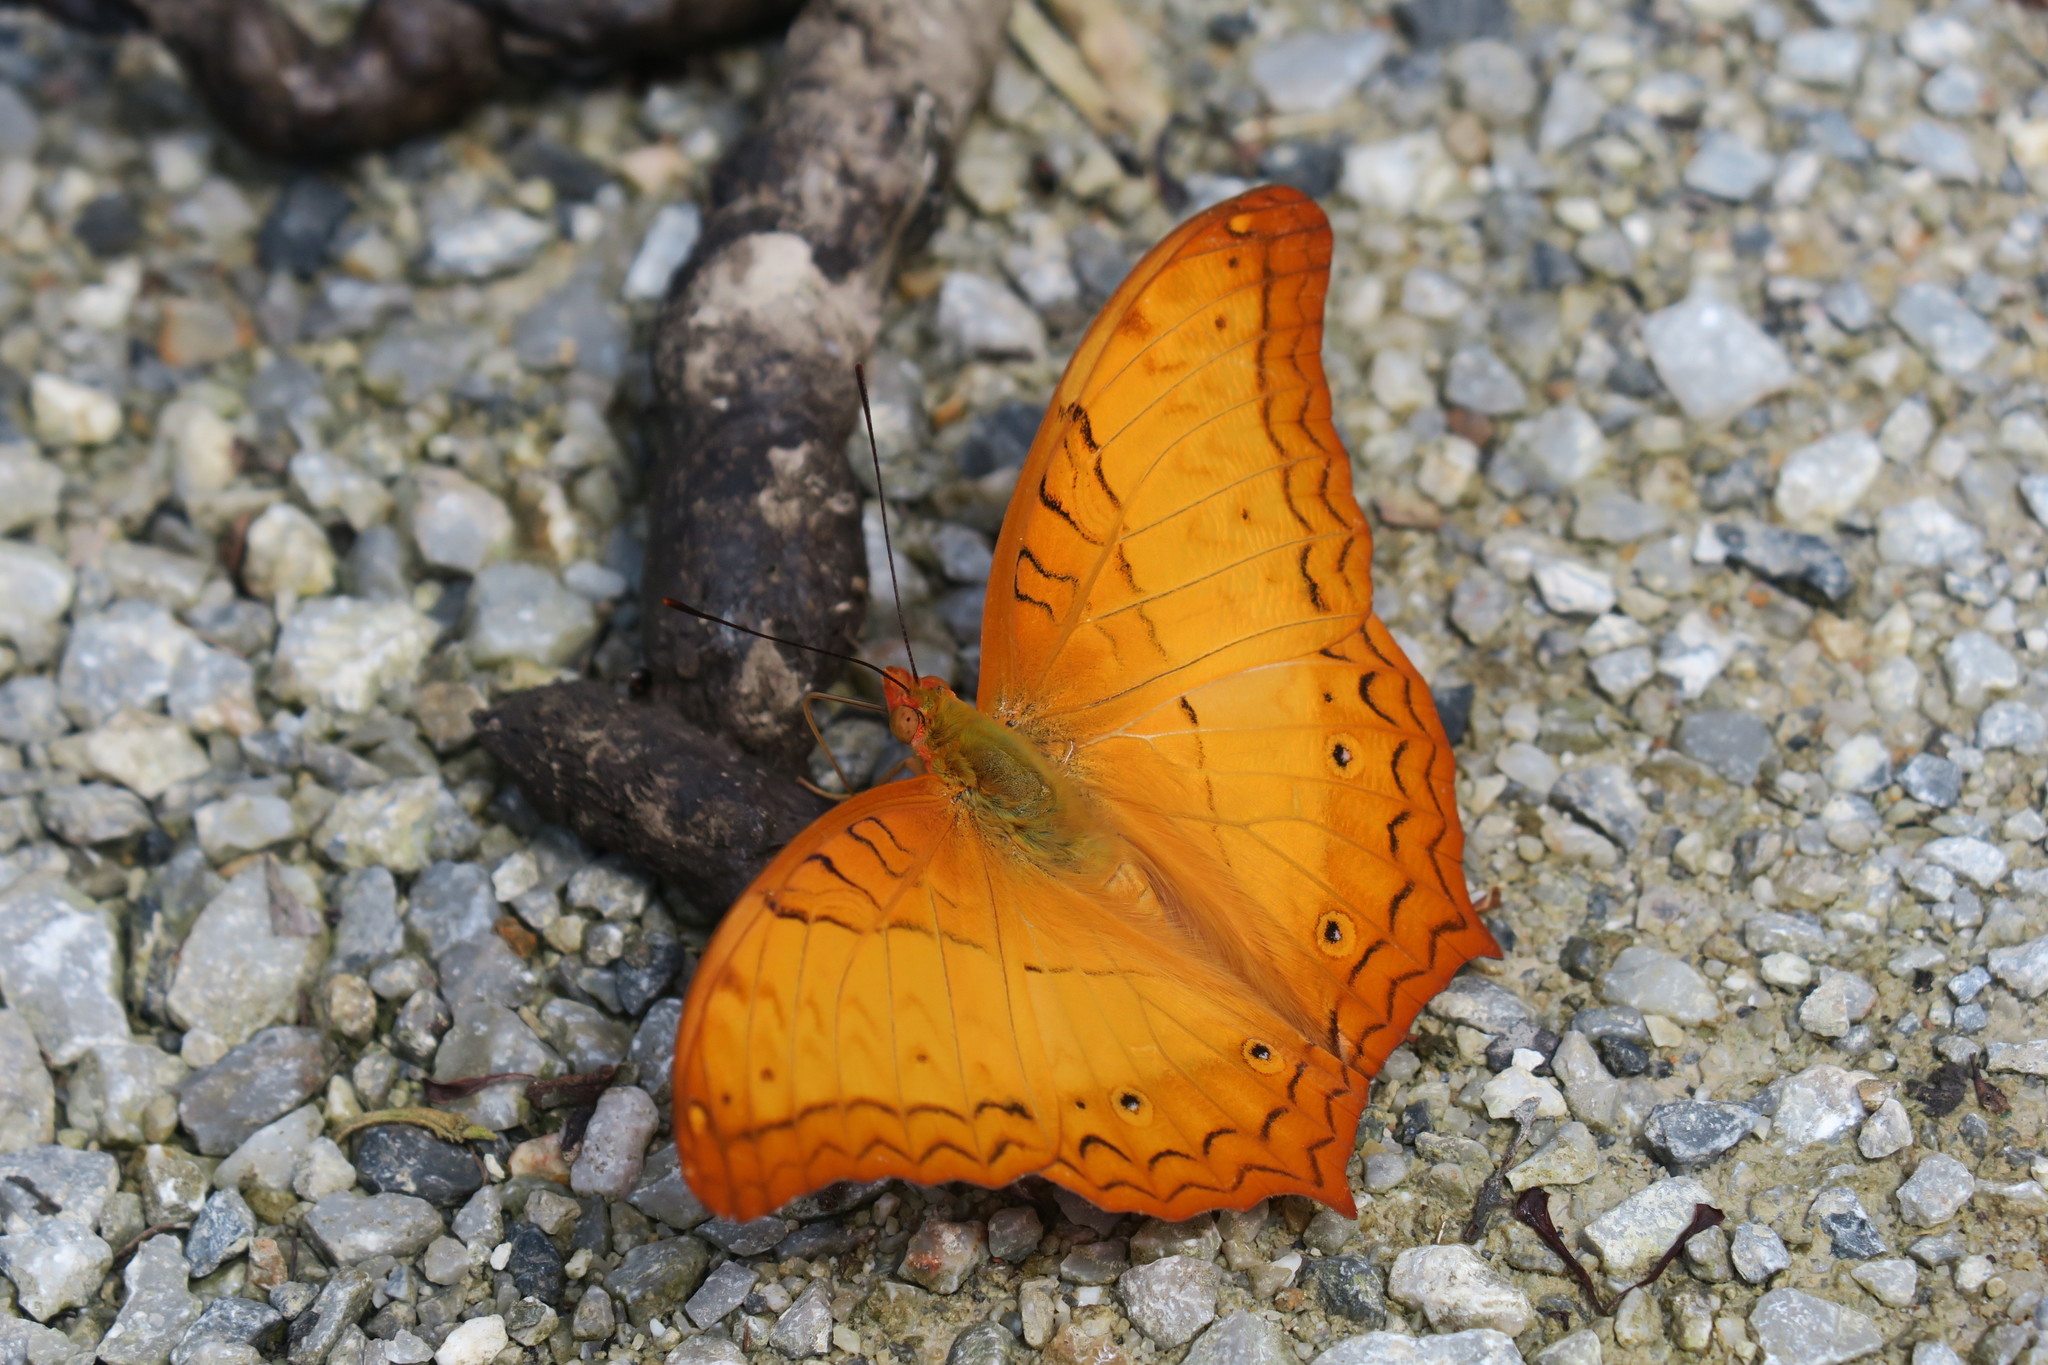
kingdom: Animalia
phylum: Arthropoda
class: Insecta
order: Lepidoptera
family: Nymphalidae
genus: Vindula
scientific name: Vindula deione
